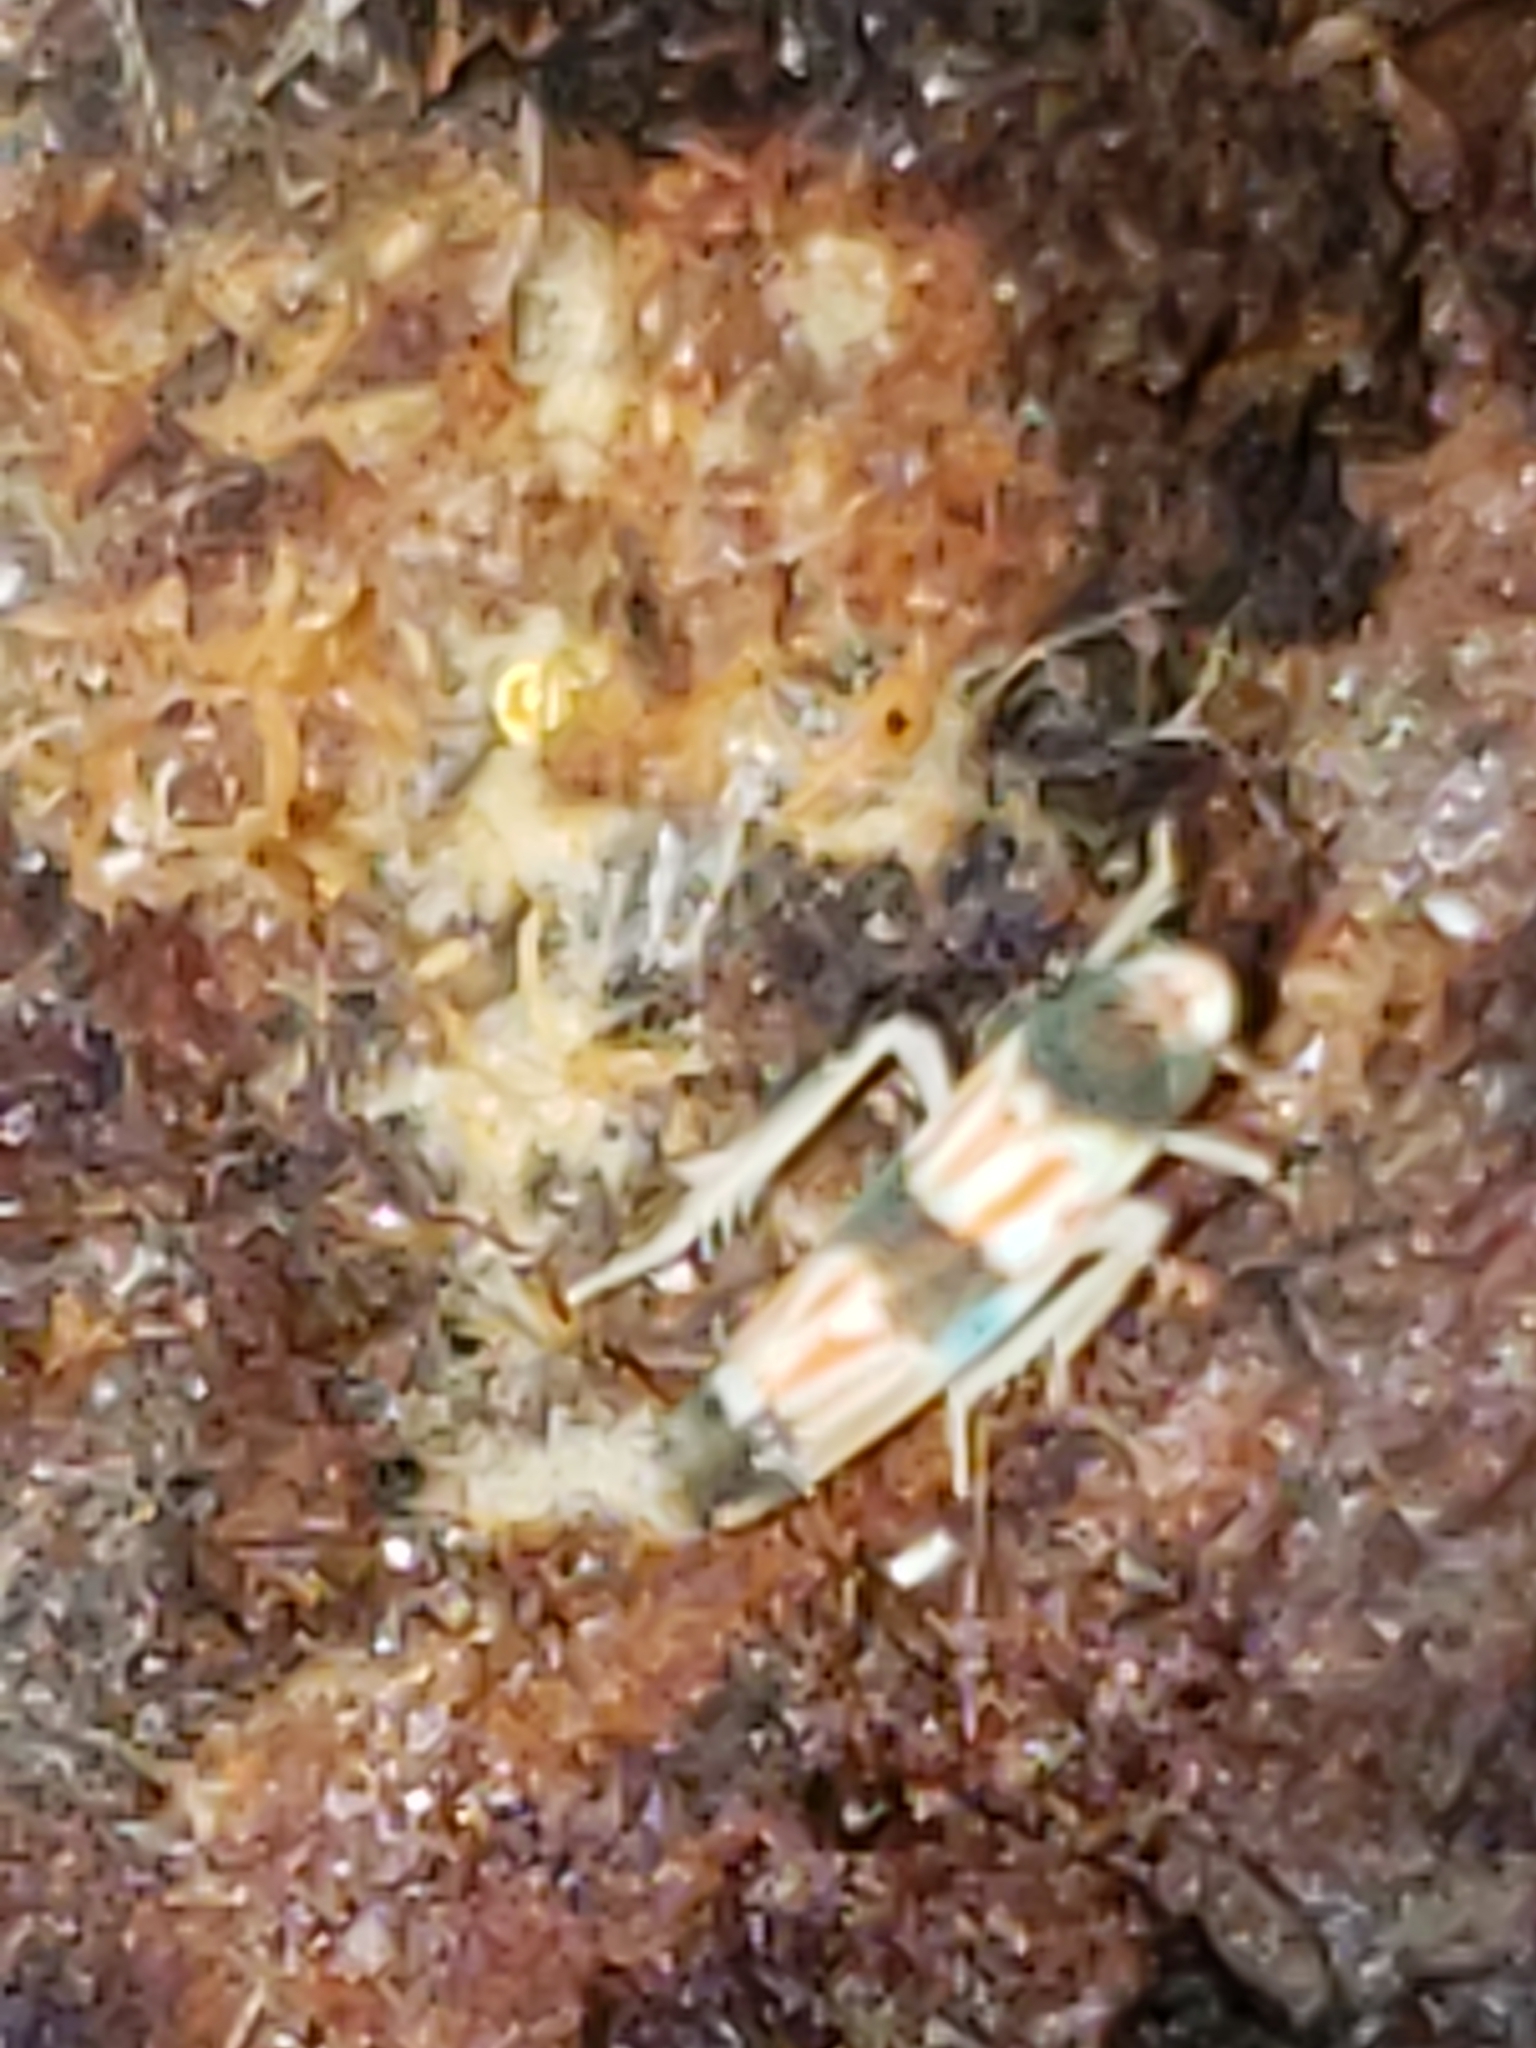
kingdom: Animalia
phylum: Arthropoda
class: Insecta
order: Hemiptera
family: Cicadellidae
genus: Erythroneura
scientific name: Erythroneura tricincta
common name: The threebanded grape leafhopper
